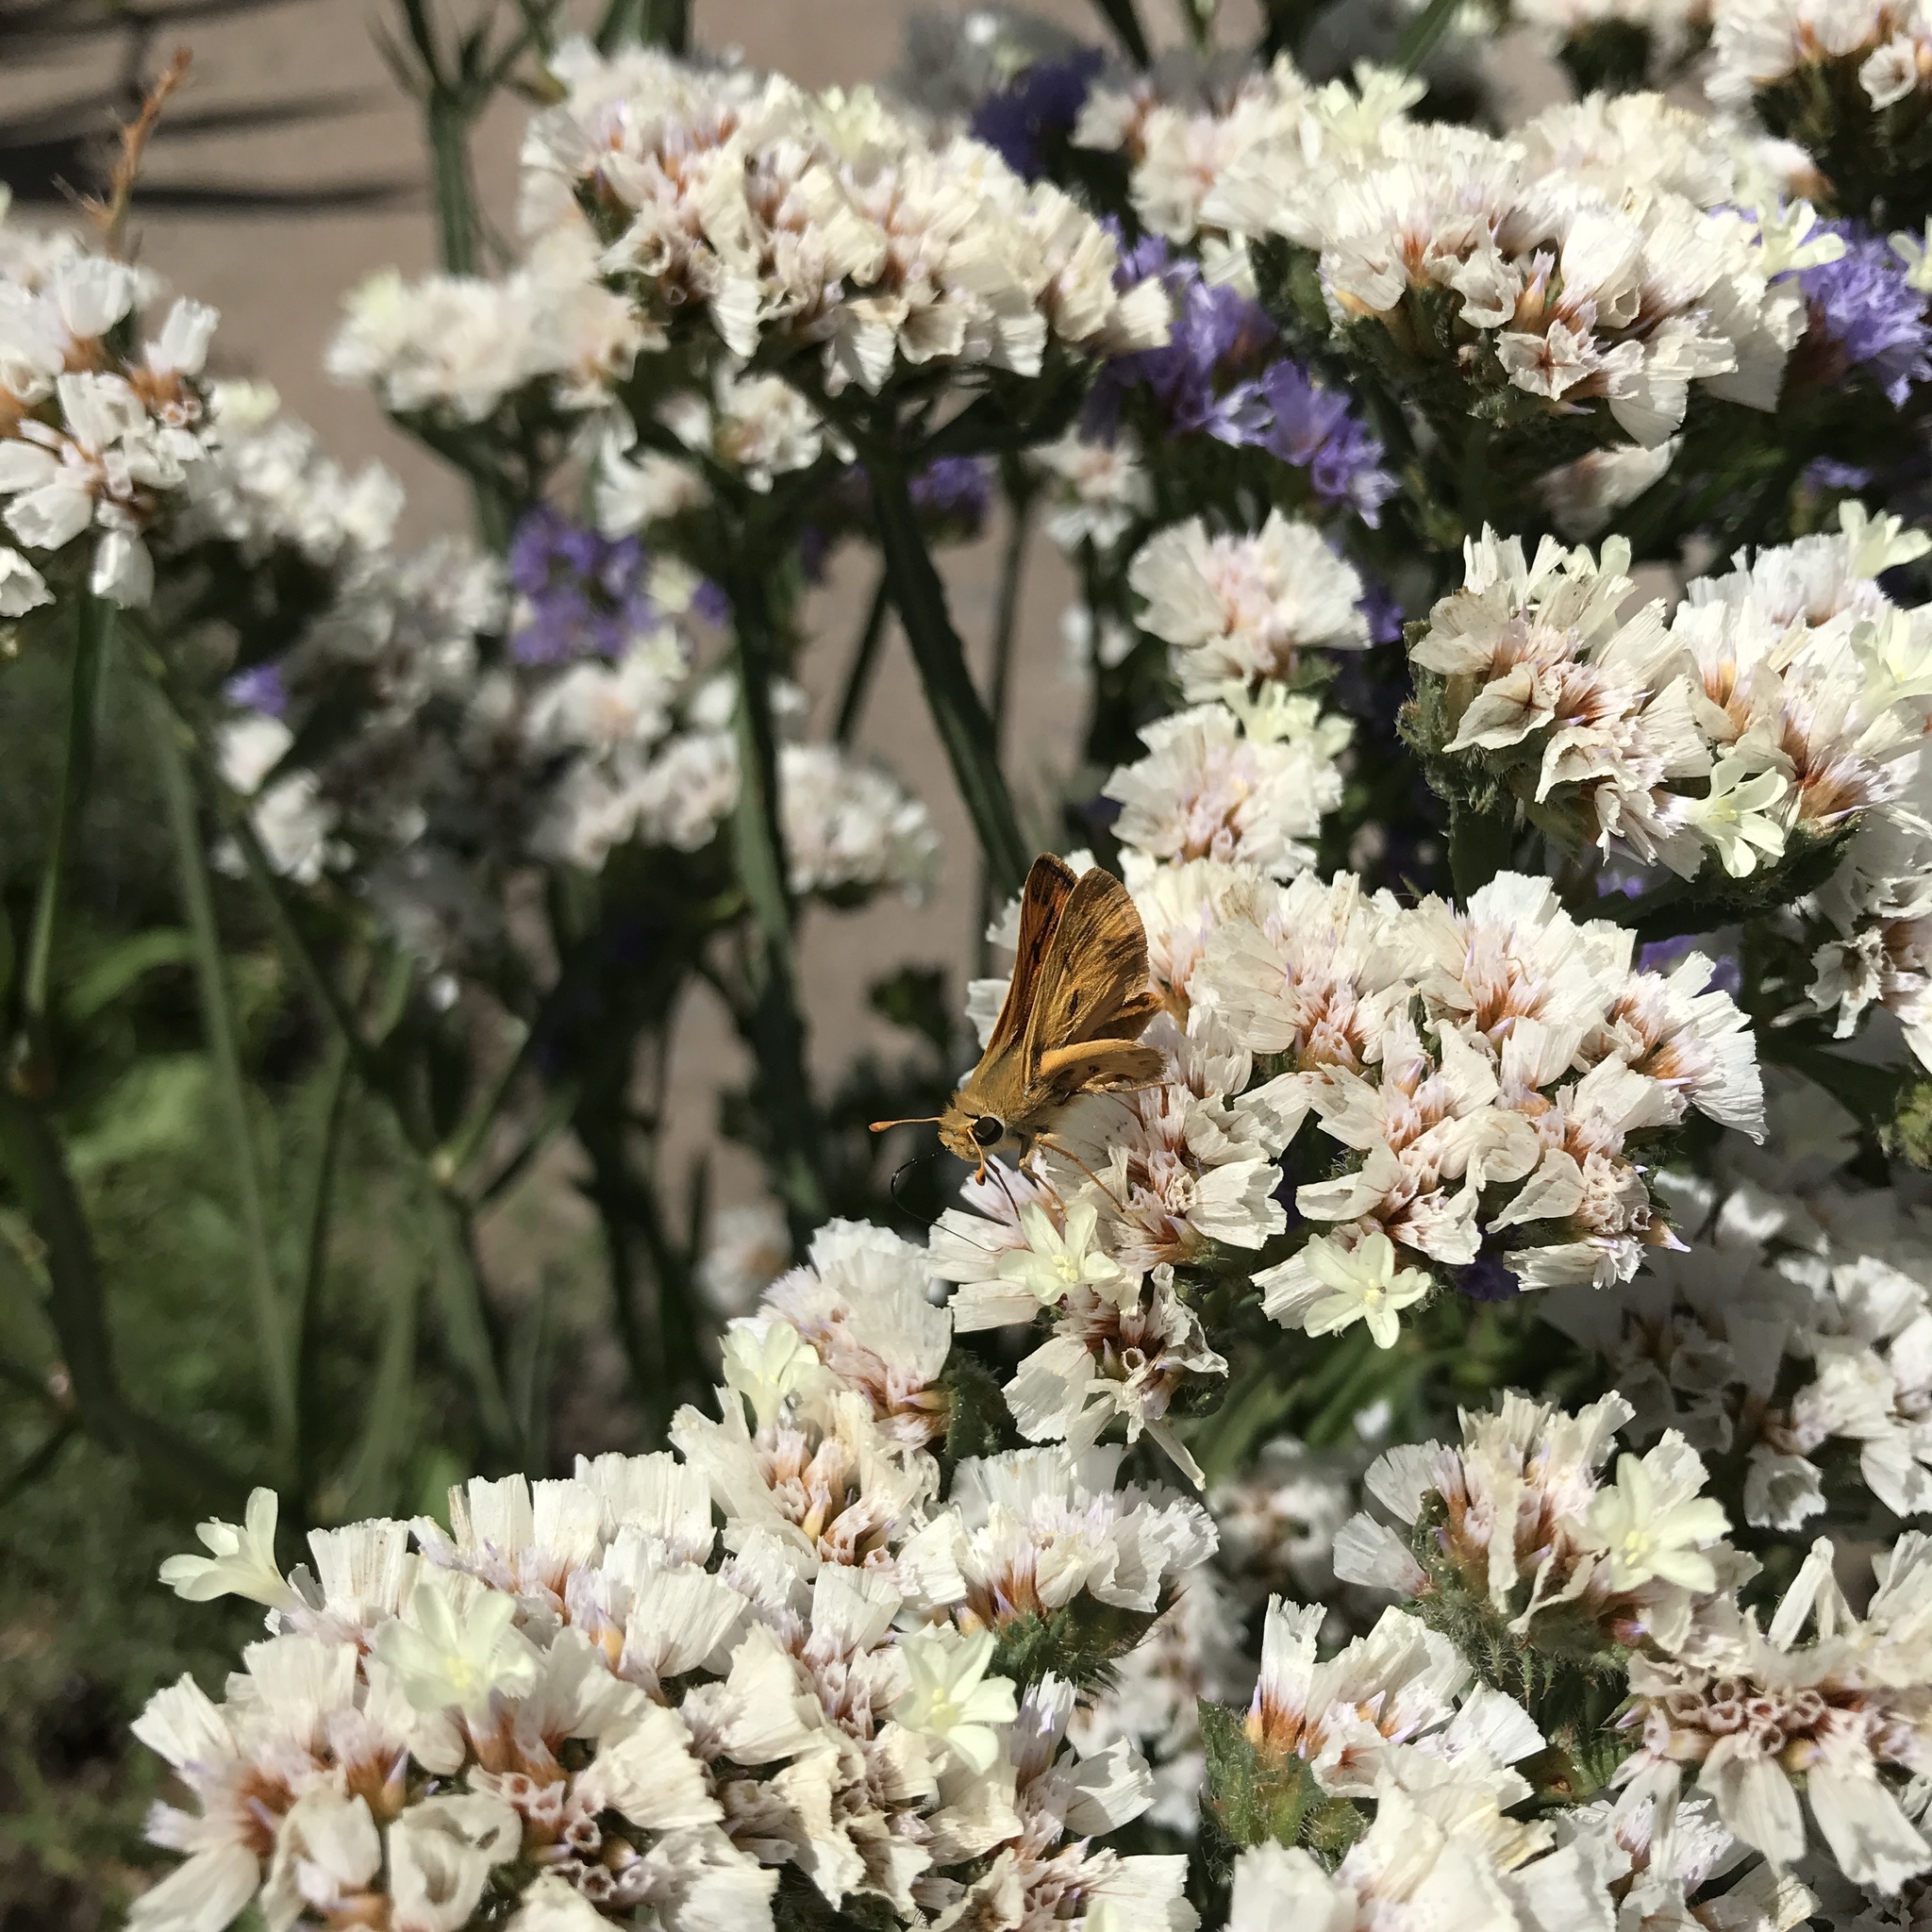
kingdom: Animalia
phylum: Arthropoda
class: Insecta
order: Lepidoptera
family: Hesperiidae
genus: Hylephila
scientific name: Hylephila signata
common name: Signata skipper
